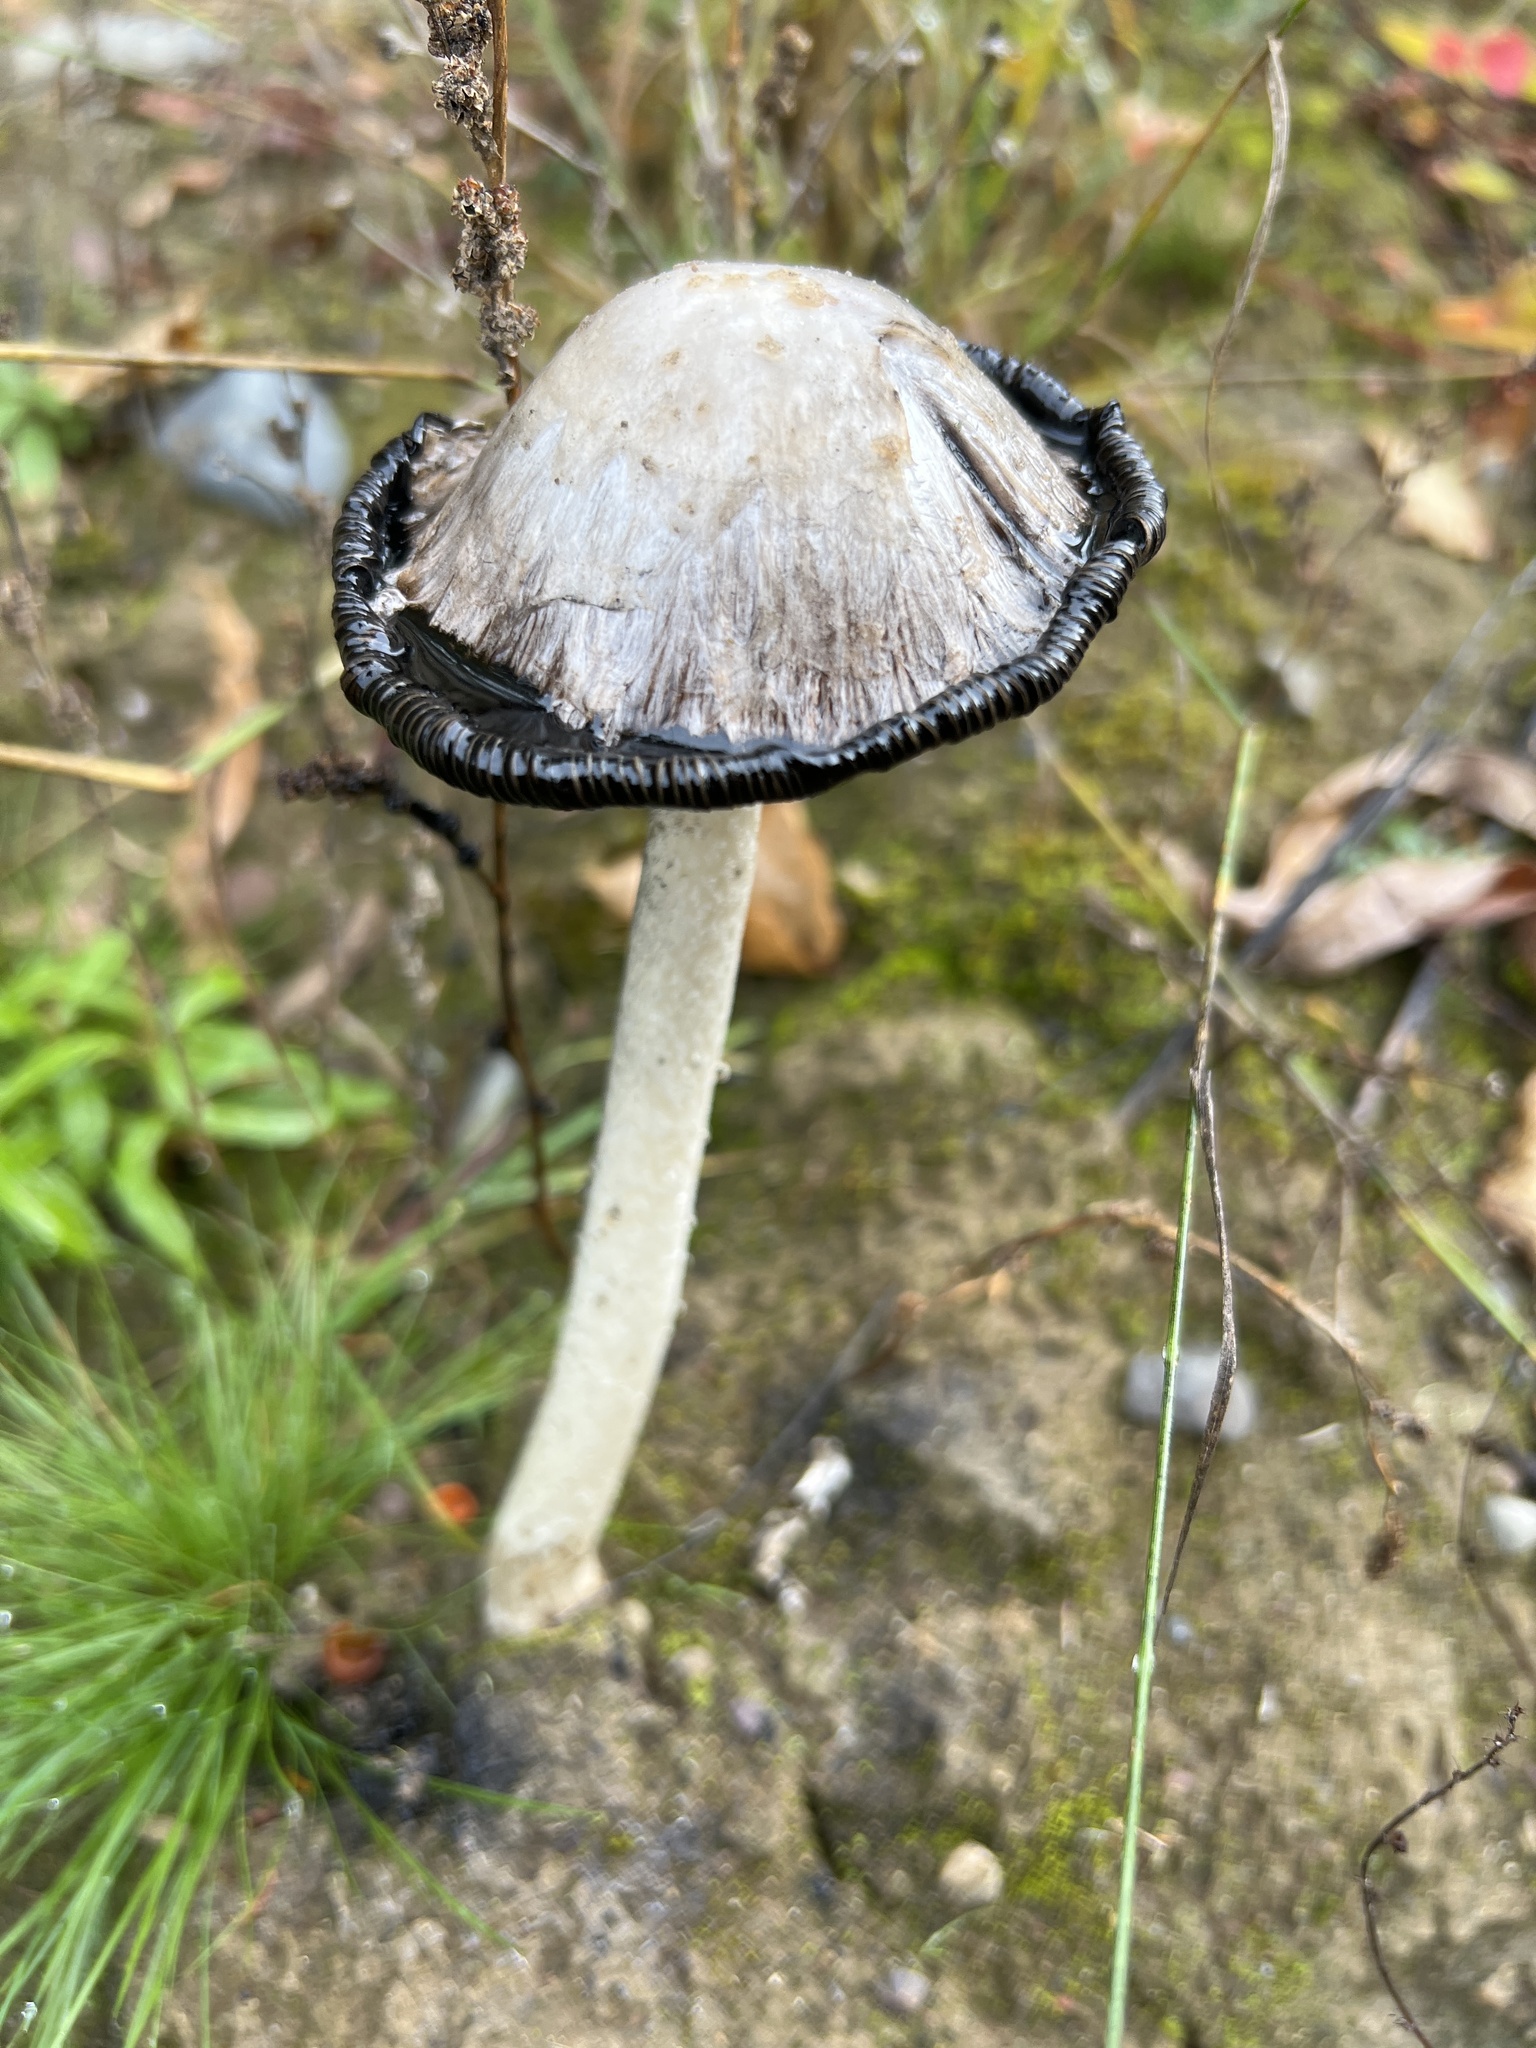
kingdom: Fungi
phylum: Basidiomycota
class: Agaricomycetes
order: Agaricales
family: Agaricaceae
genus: Coprinus
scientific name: Coprinus comatus
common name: Lawyer's wig
